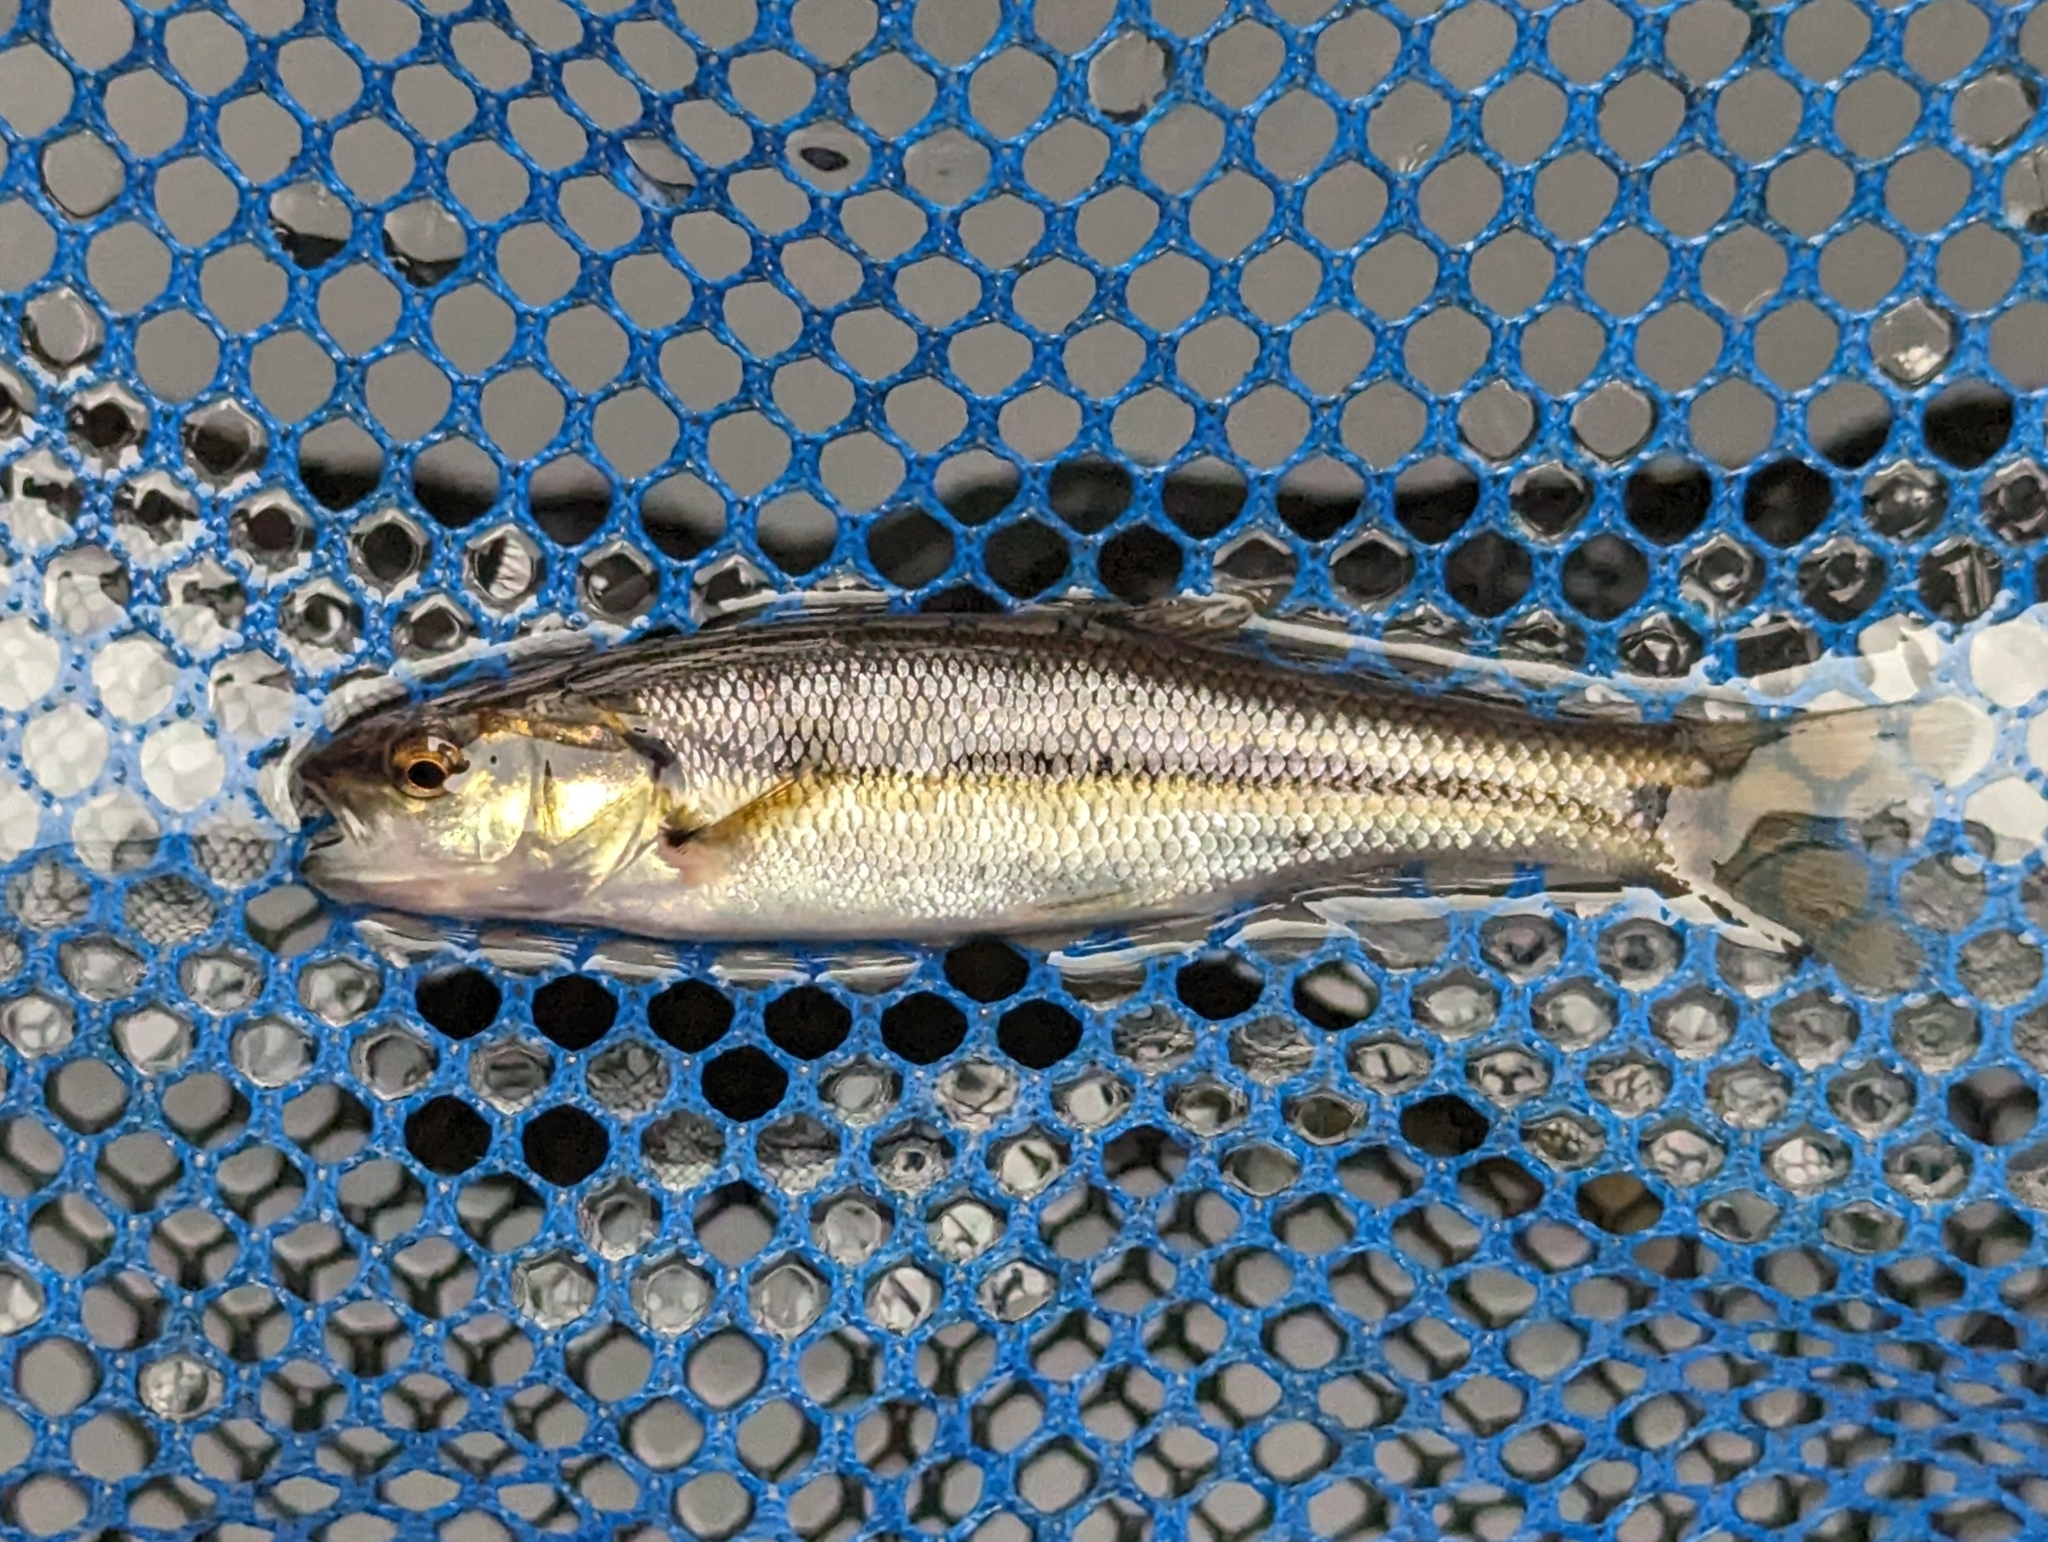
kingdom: Animalia
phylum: Chordata
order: Cypriniformes
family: Cyprinidae
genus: Semotilus
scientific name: Semotilus atromaculatus
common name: Creek chub
